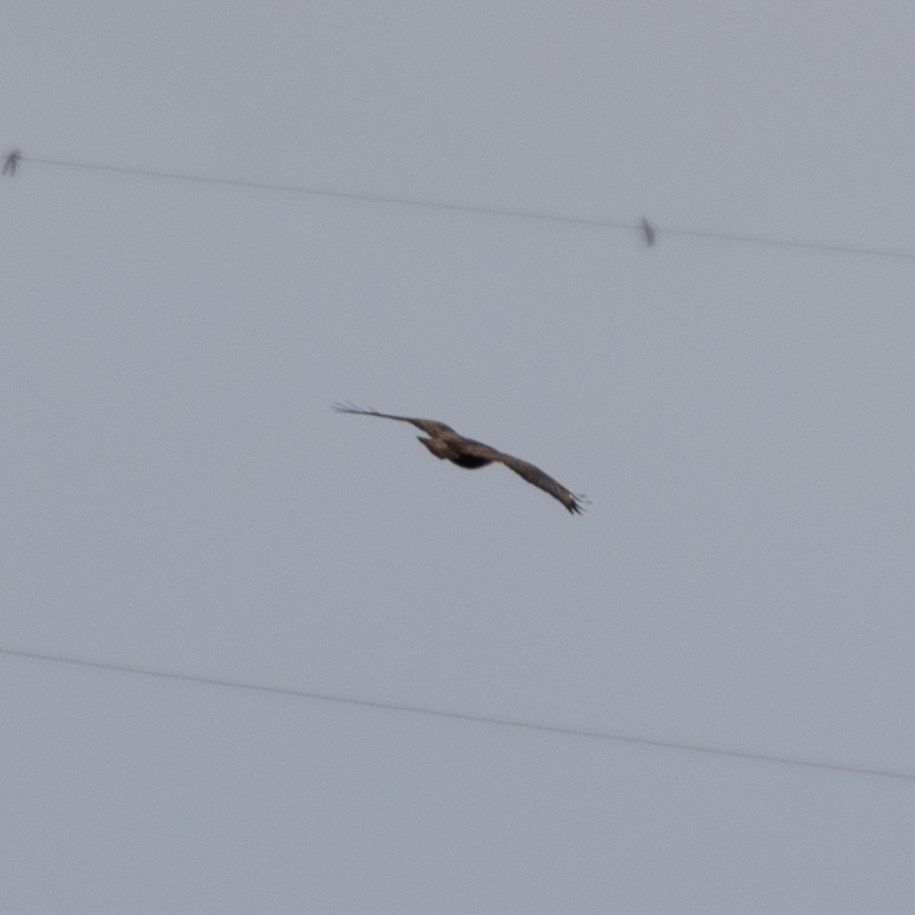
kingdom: Animalia
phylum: Chordata
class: Aves
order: Accipitriformes
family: Accipitridae
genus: Buteo
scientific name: Buteo buteo
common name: Common buzzard
